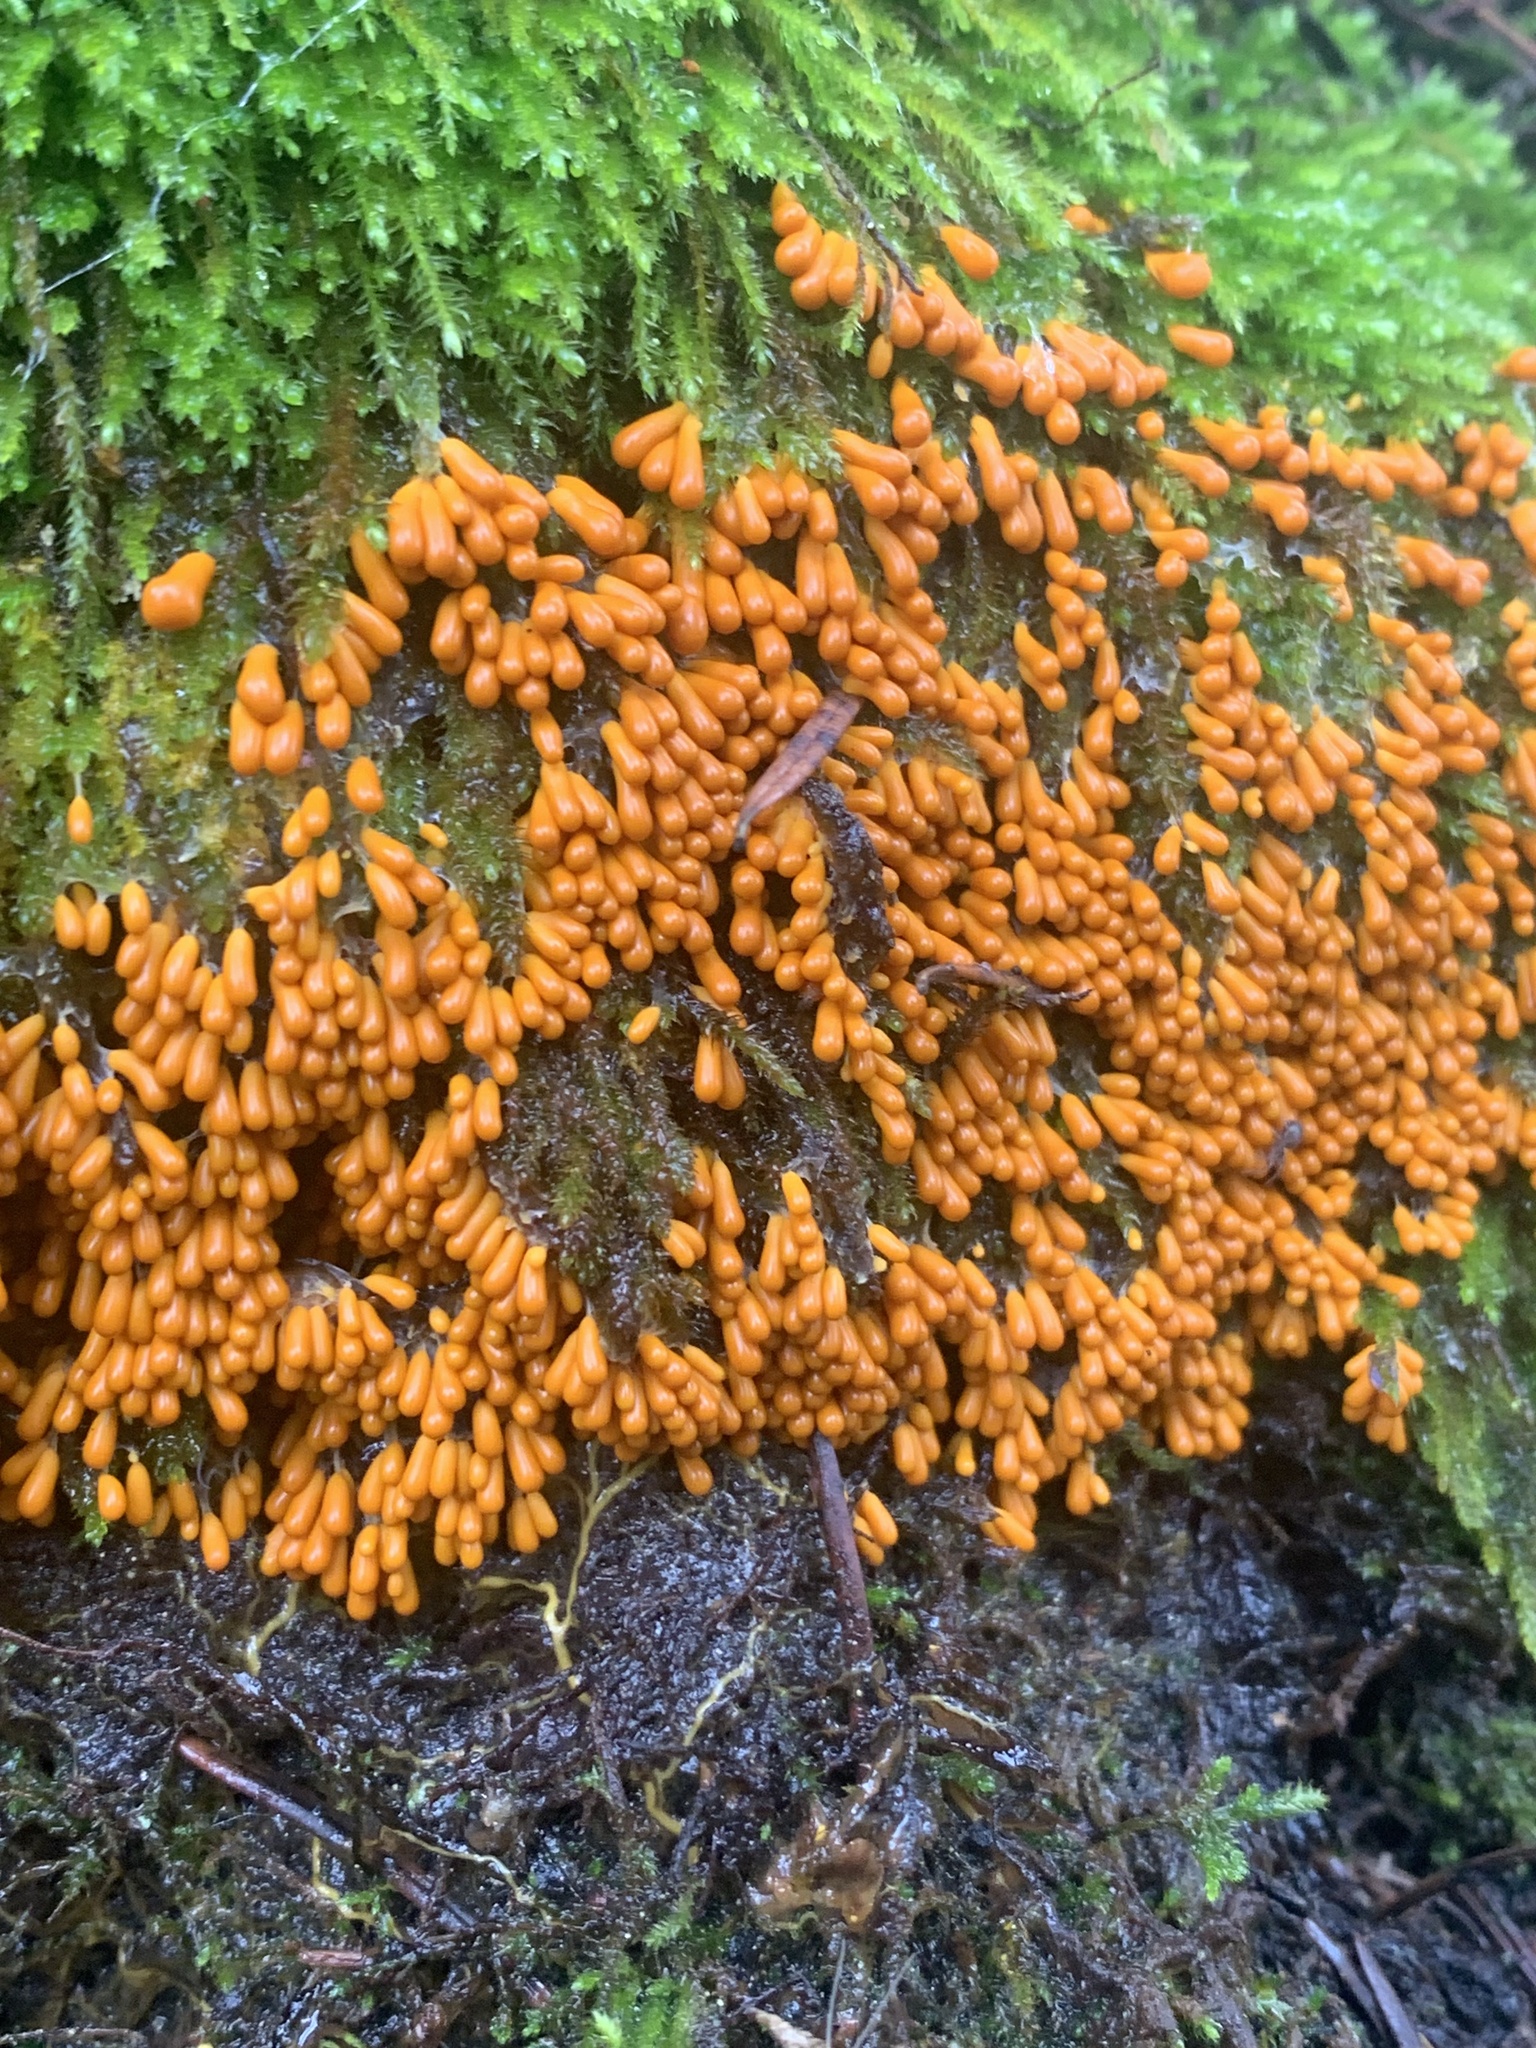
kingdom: Protozoa
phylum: Mycetozoa
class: Myxomycetes
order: Physarales
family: Physaraceae
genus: Leocarpus
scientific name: Leocarpus fragilis
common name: Insect-egg slime
